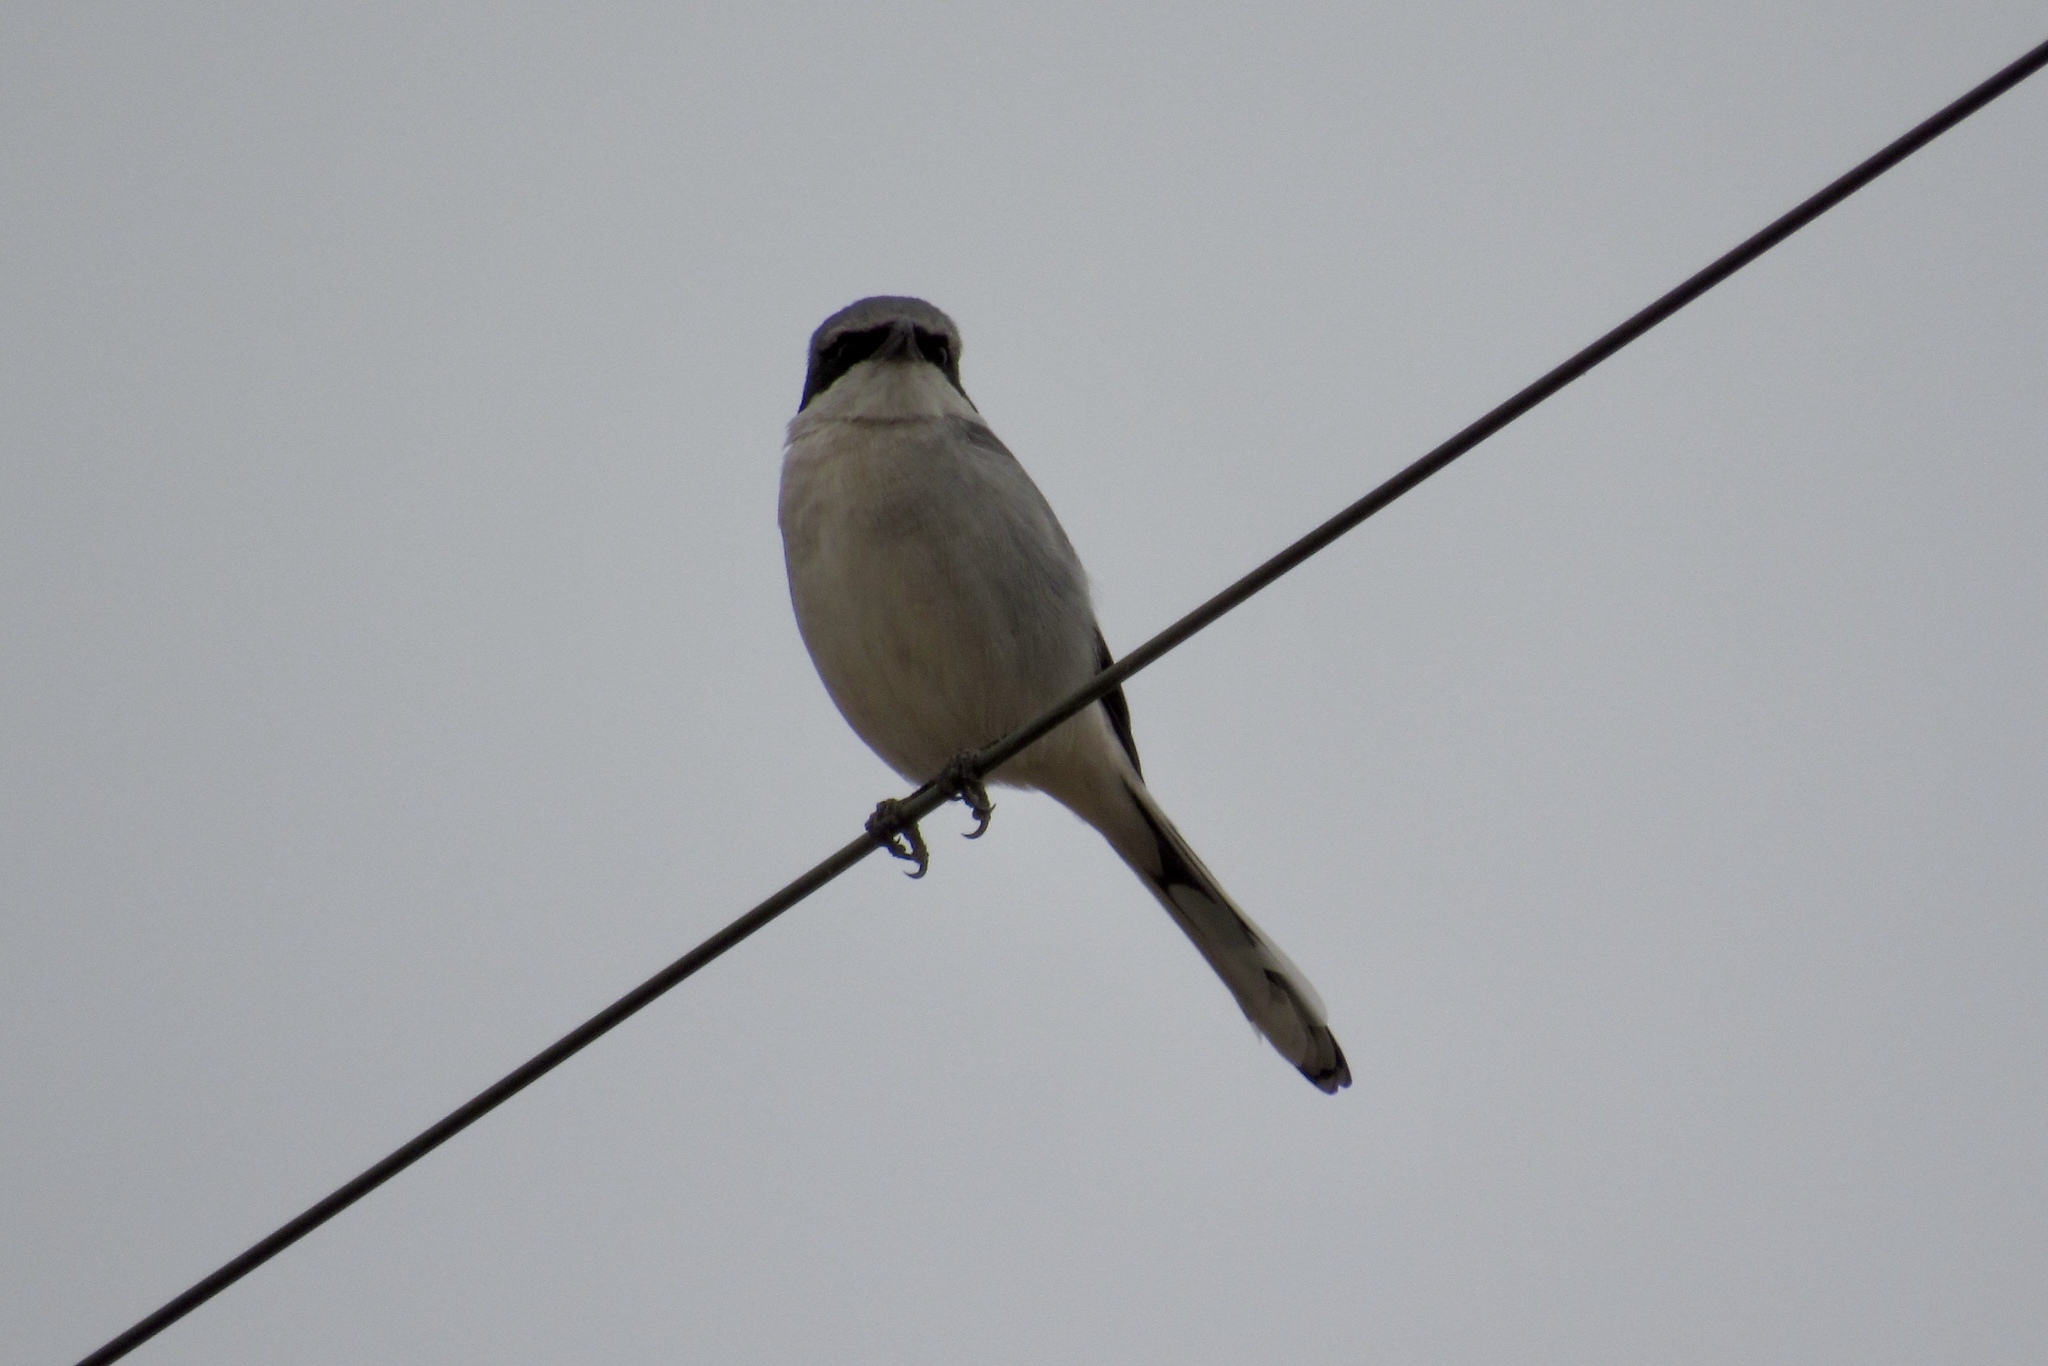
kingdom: Animalia
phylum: Chordata
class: Aves
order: Passeriformes
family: Laniidae
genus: Lanius
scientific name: Lanius ludovicianus
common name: Loggerhead shrike
